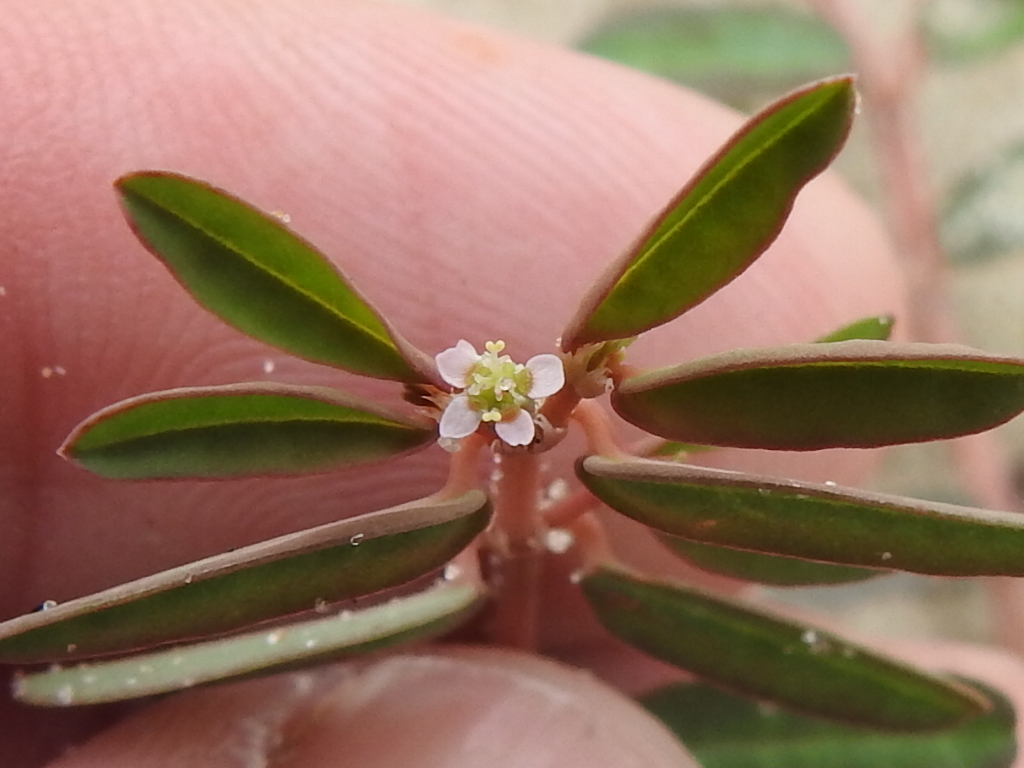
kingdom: Plantae
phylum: Tracheophyta
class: Magnoliopsida
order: Malpighiales
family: Euphorbiaceae
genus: Euphorbia
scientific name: Euphorbia bombensis
